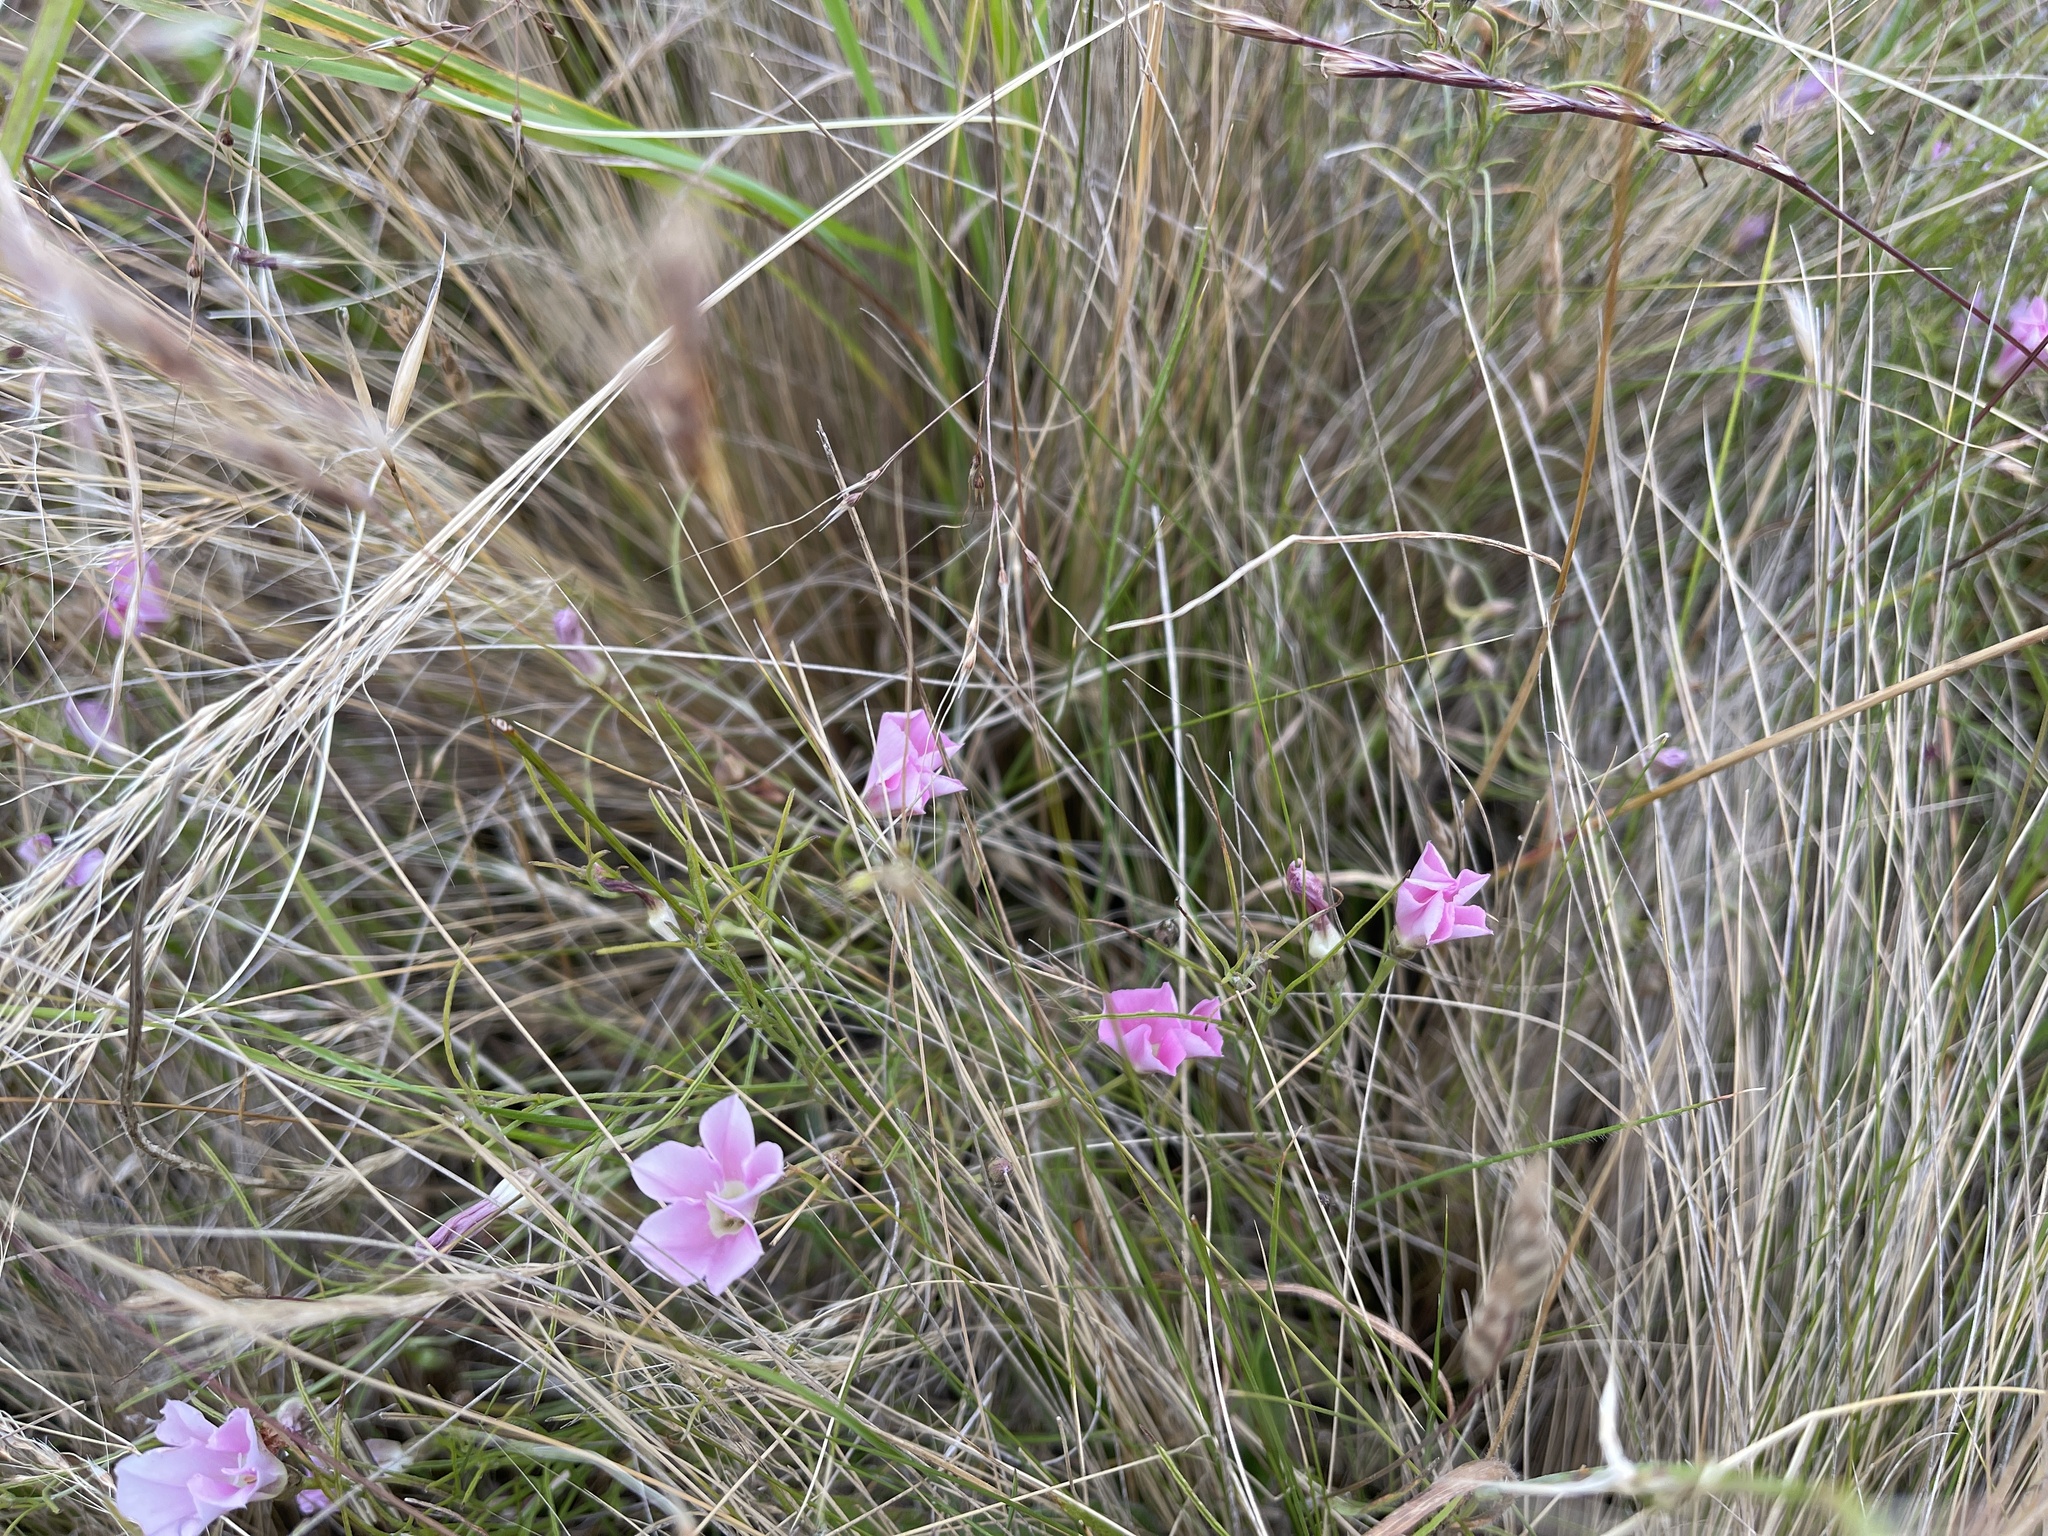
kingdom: Plantae
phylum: Tracheophyta
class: Magnoliopsida
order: Solanales
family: Convolvulaceae
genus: Convolvulus
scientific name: Convolvulus angustissimus
